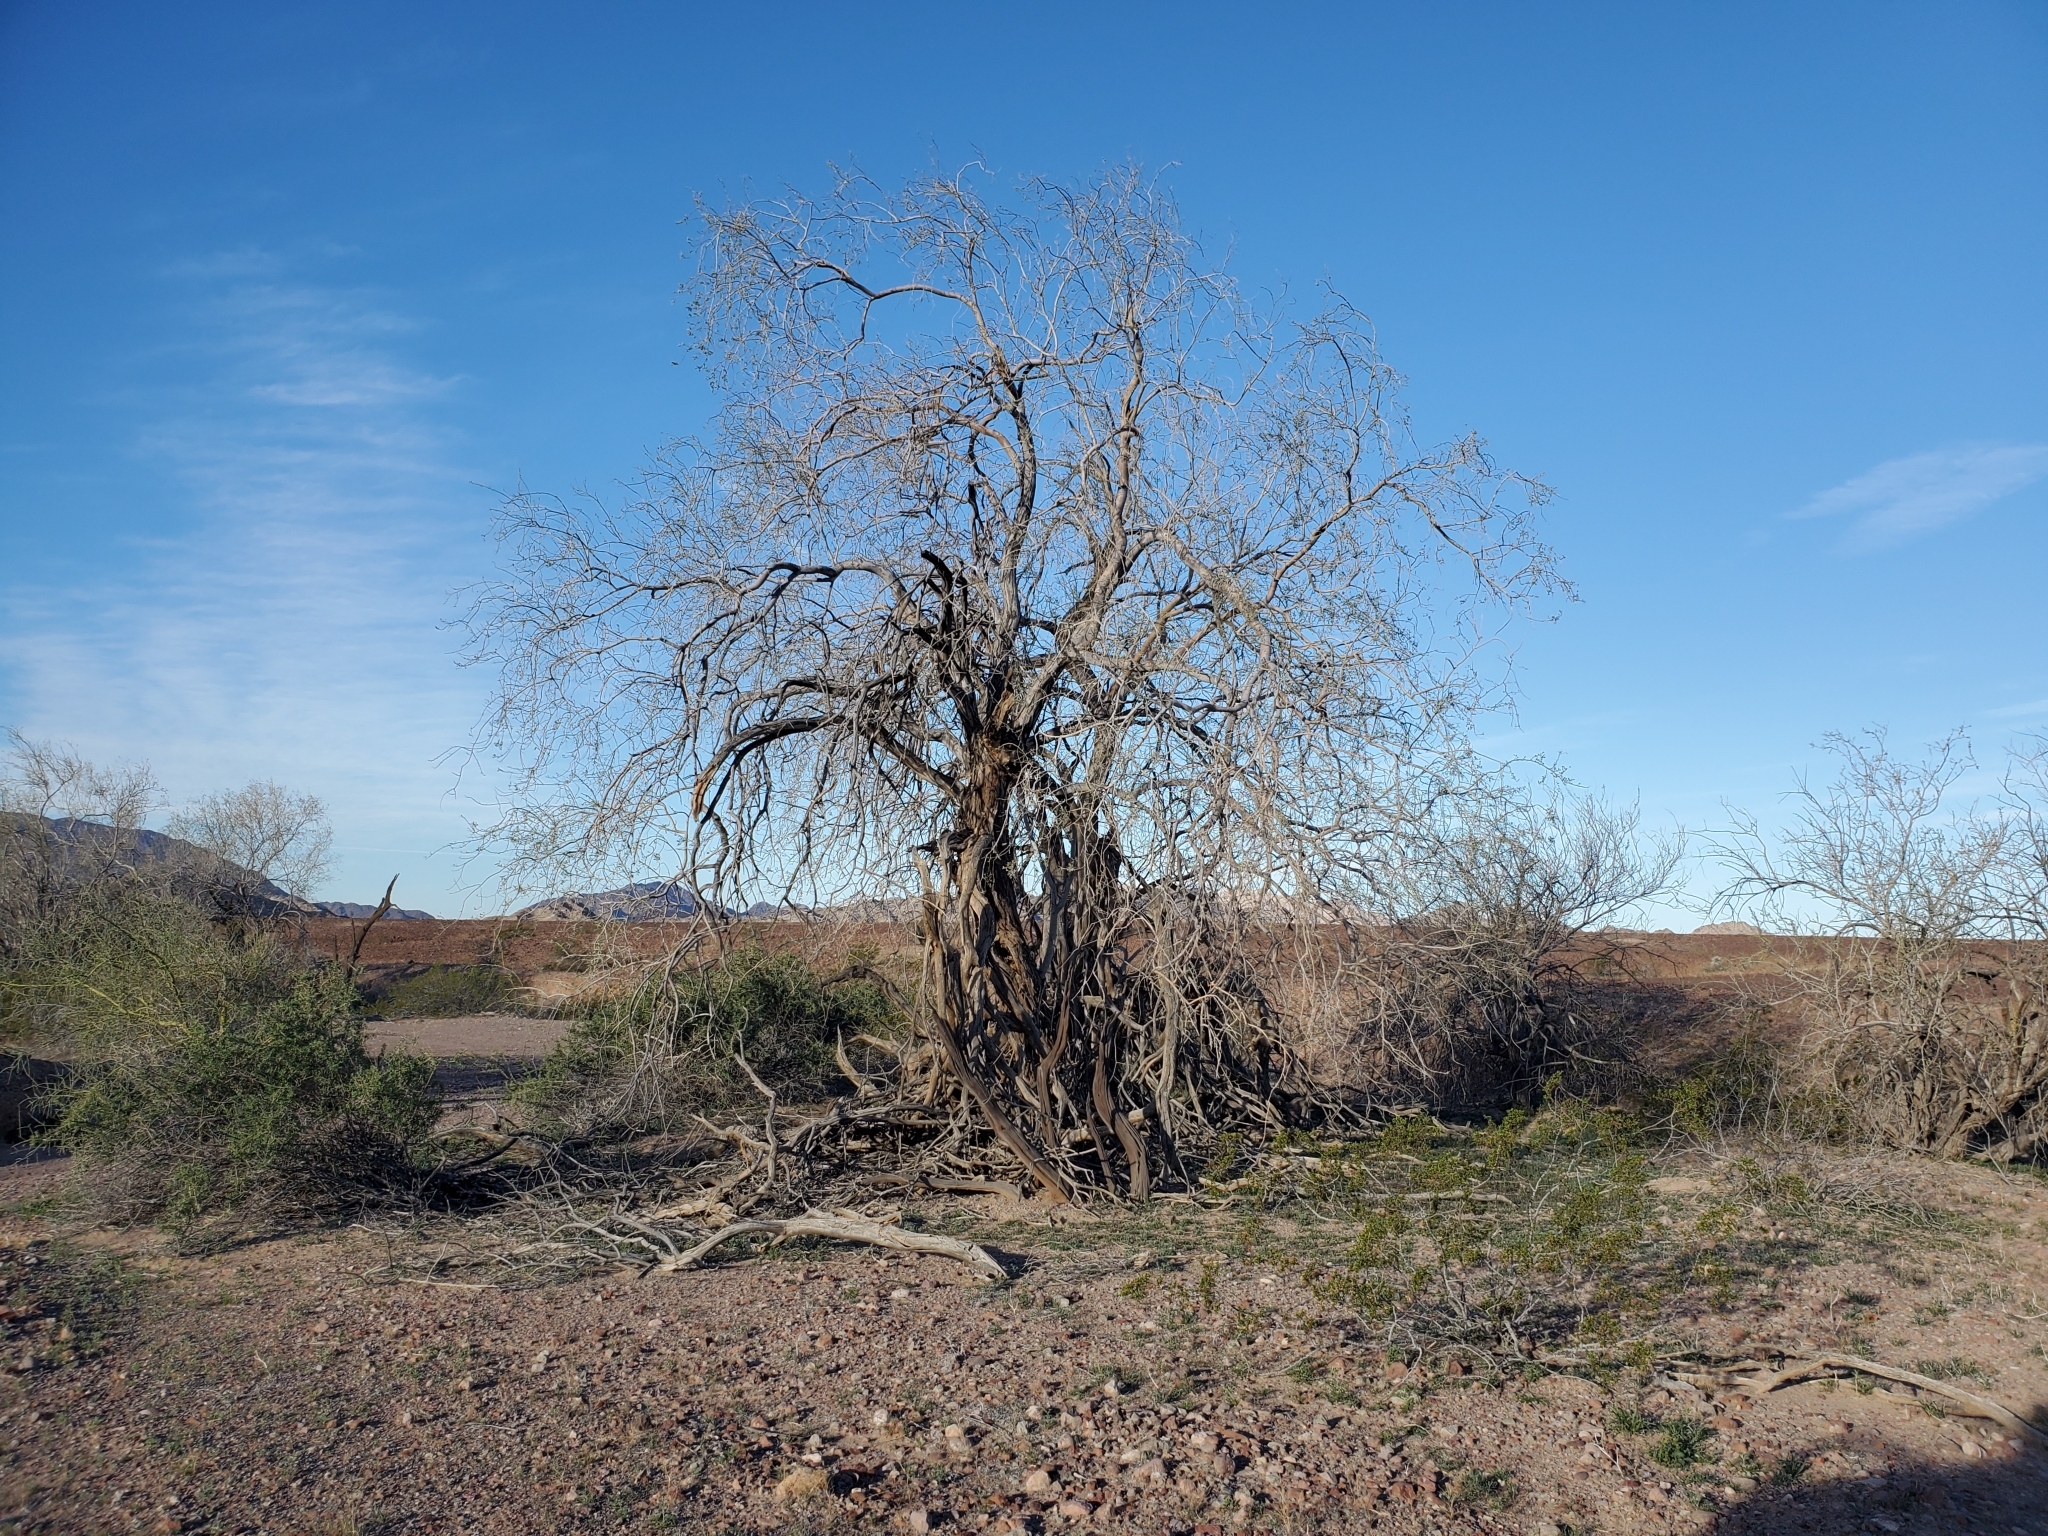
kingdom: Plantae
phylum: Tracheophyta
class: Magnoliopsida
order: Fabales
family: Fabaceae
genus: Olneya
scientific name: Olneya tesota
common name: Desert ironwood
